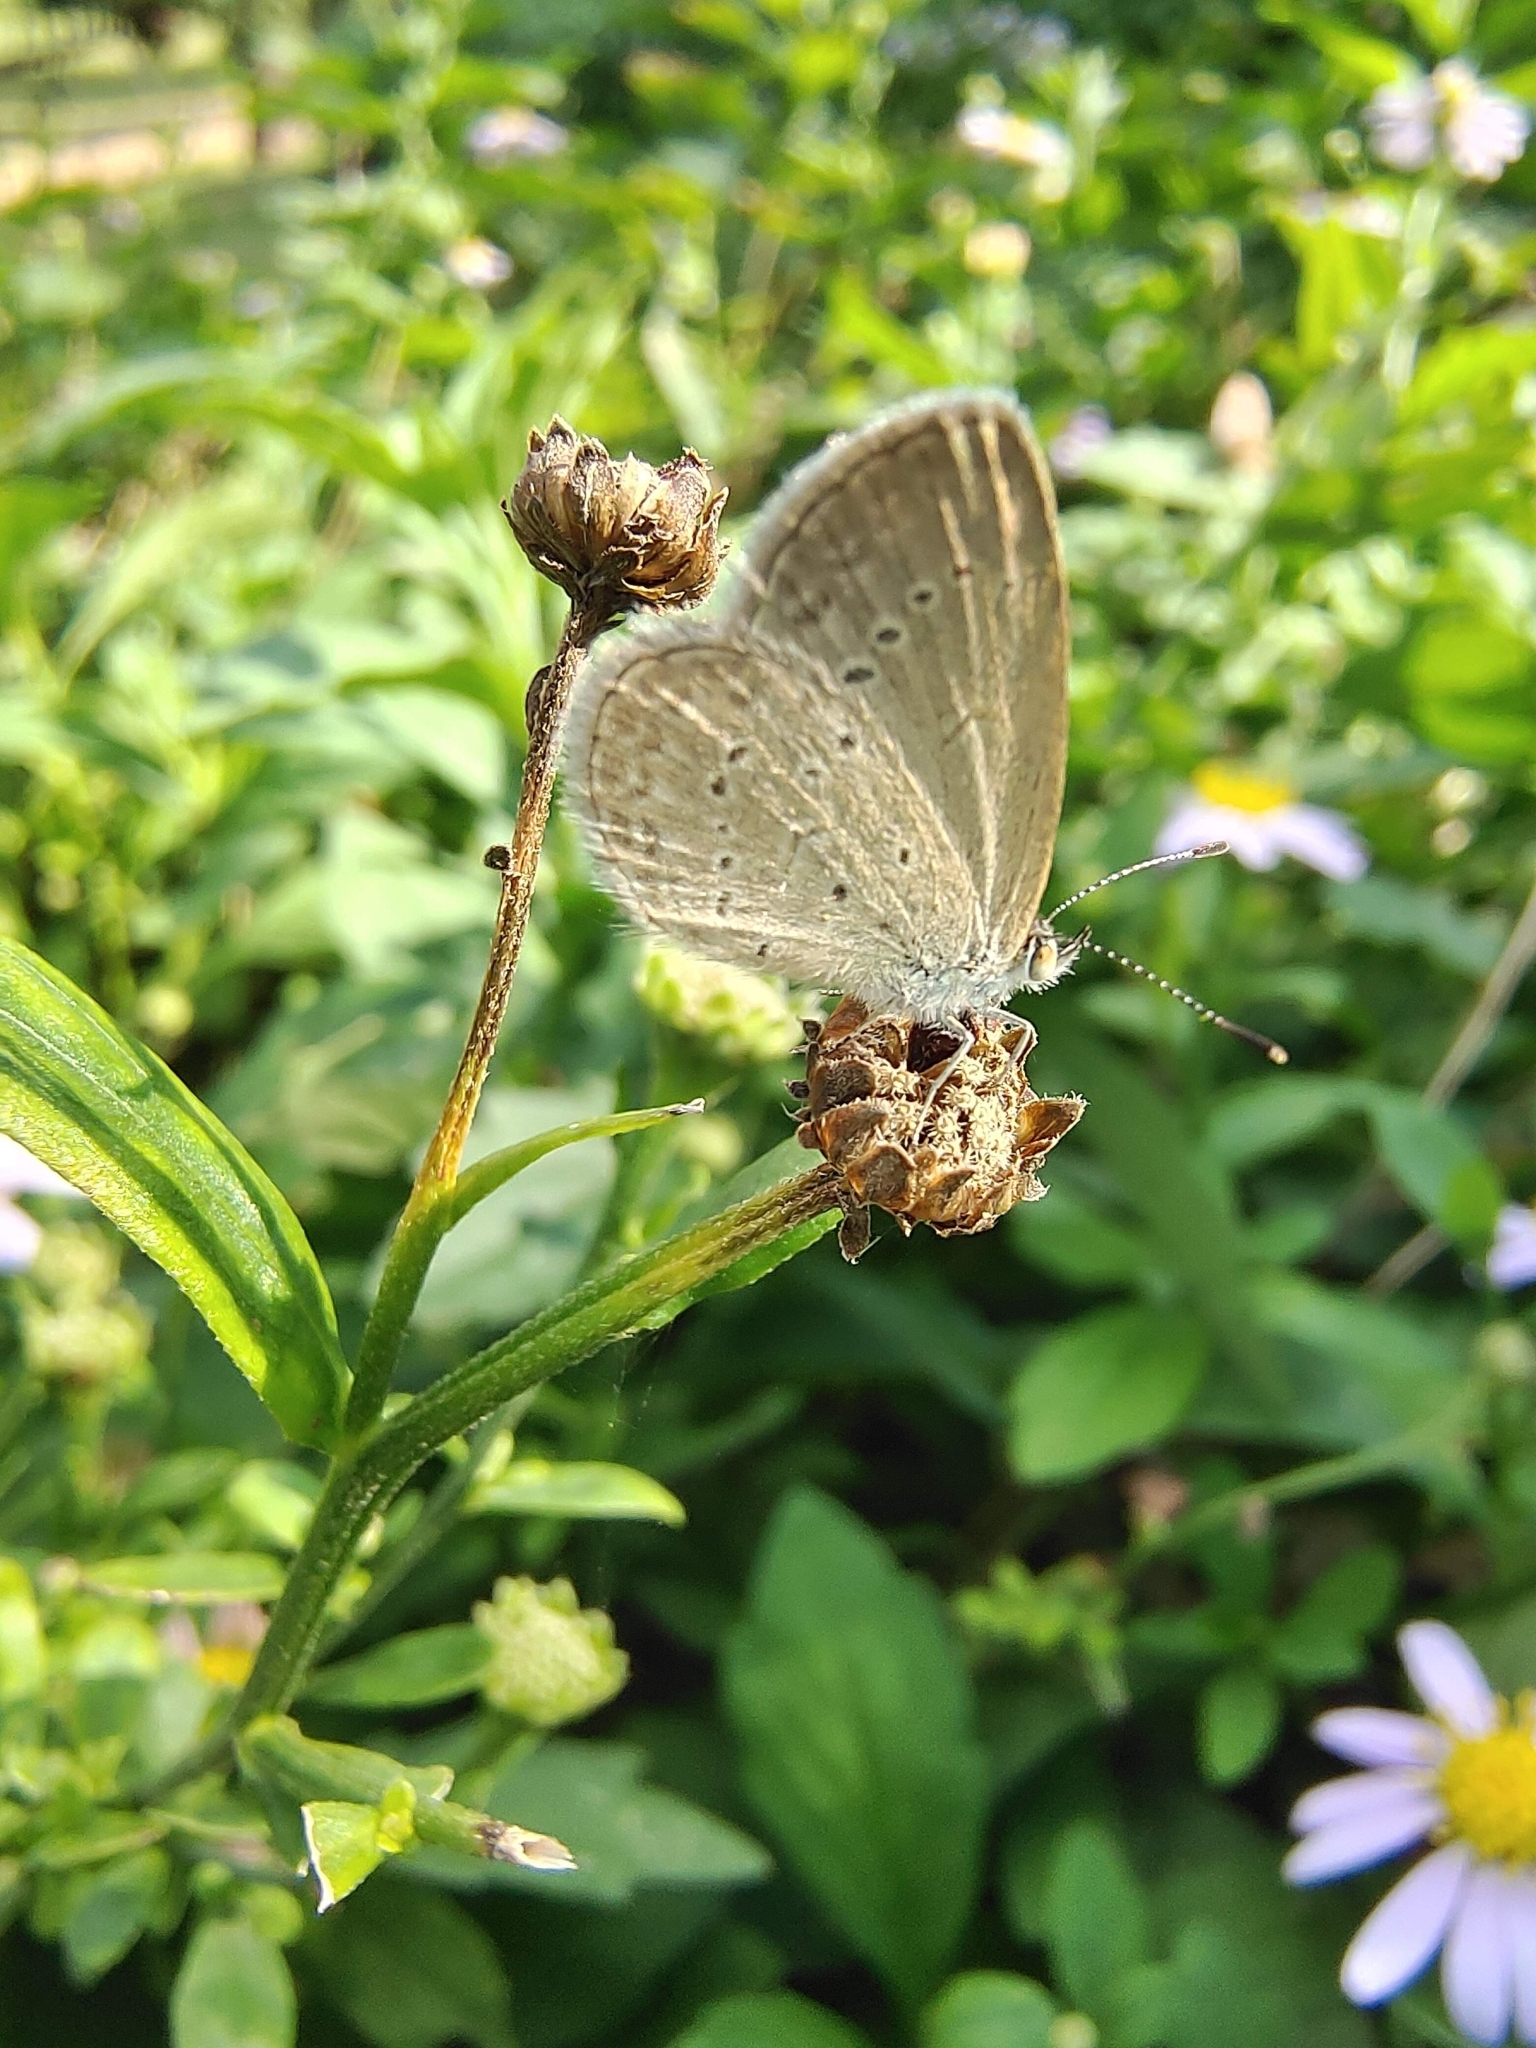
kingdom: Animalia
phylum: Arthropoda
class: Insecta
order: Lepidoptera
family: Lycaenidae
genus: Zizina
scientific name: Zizina otis
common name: Lesser grass blue
